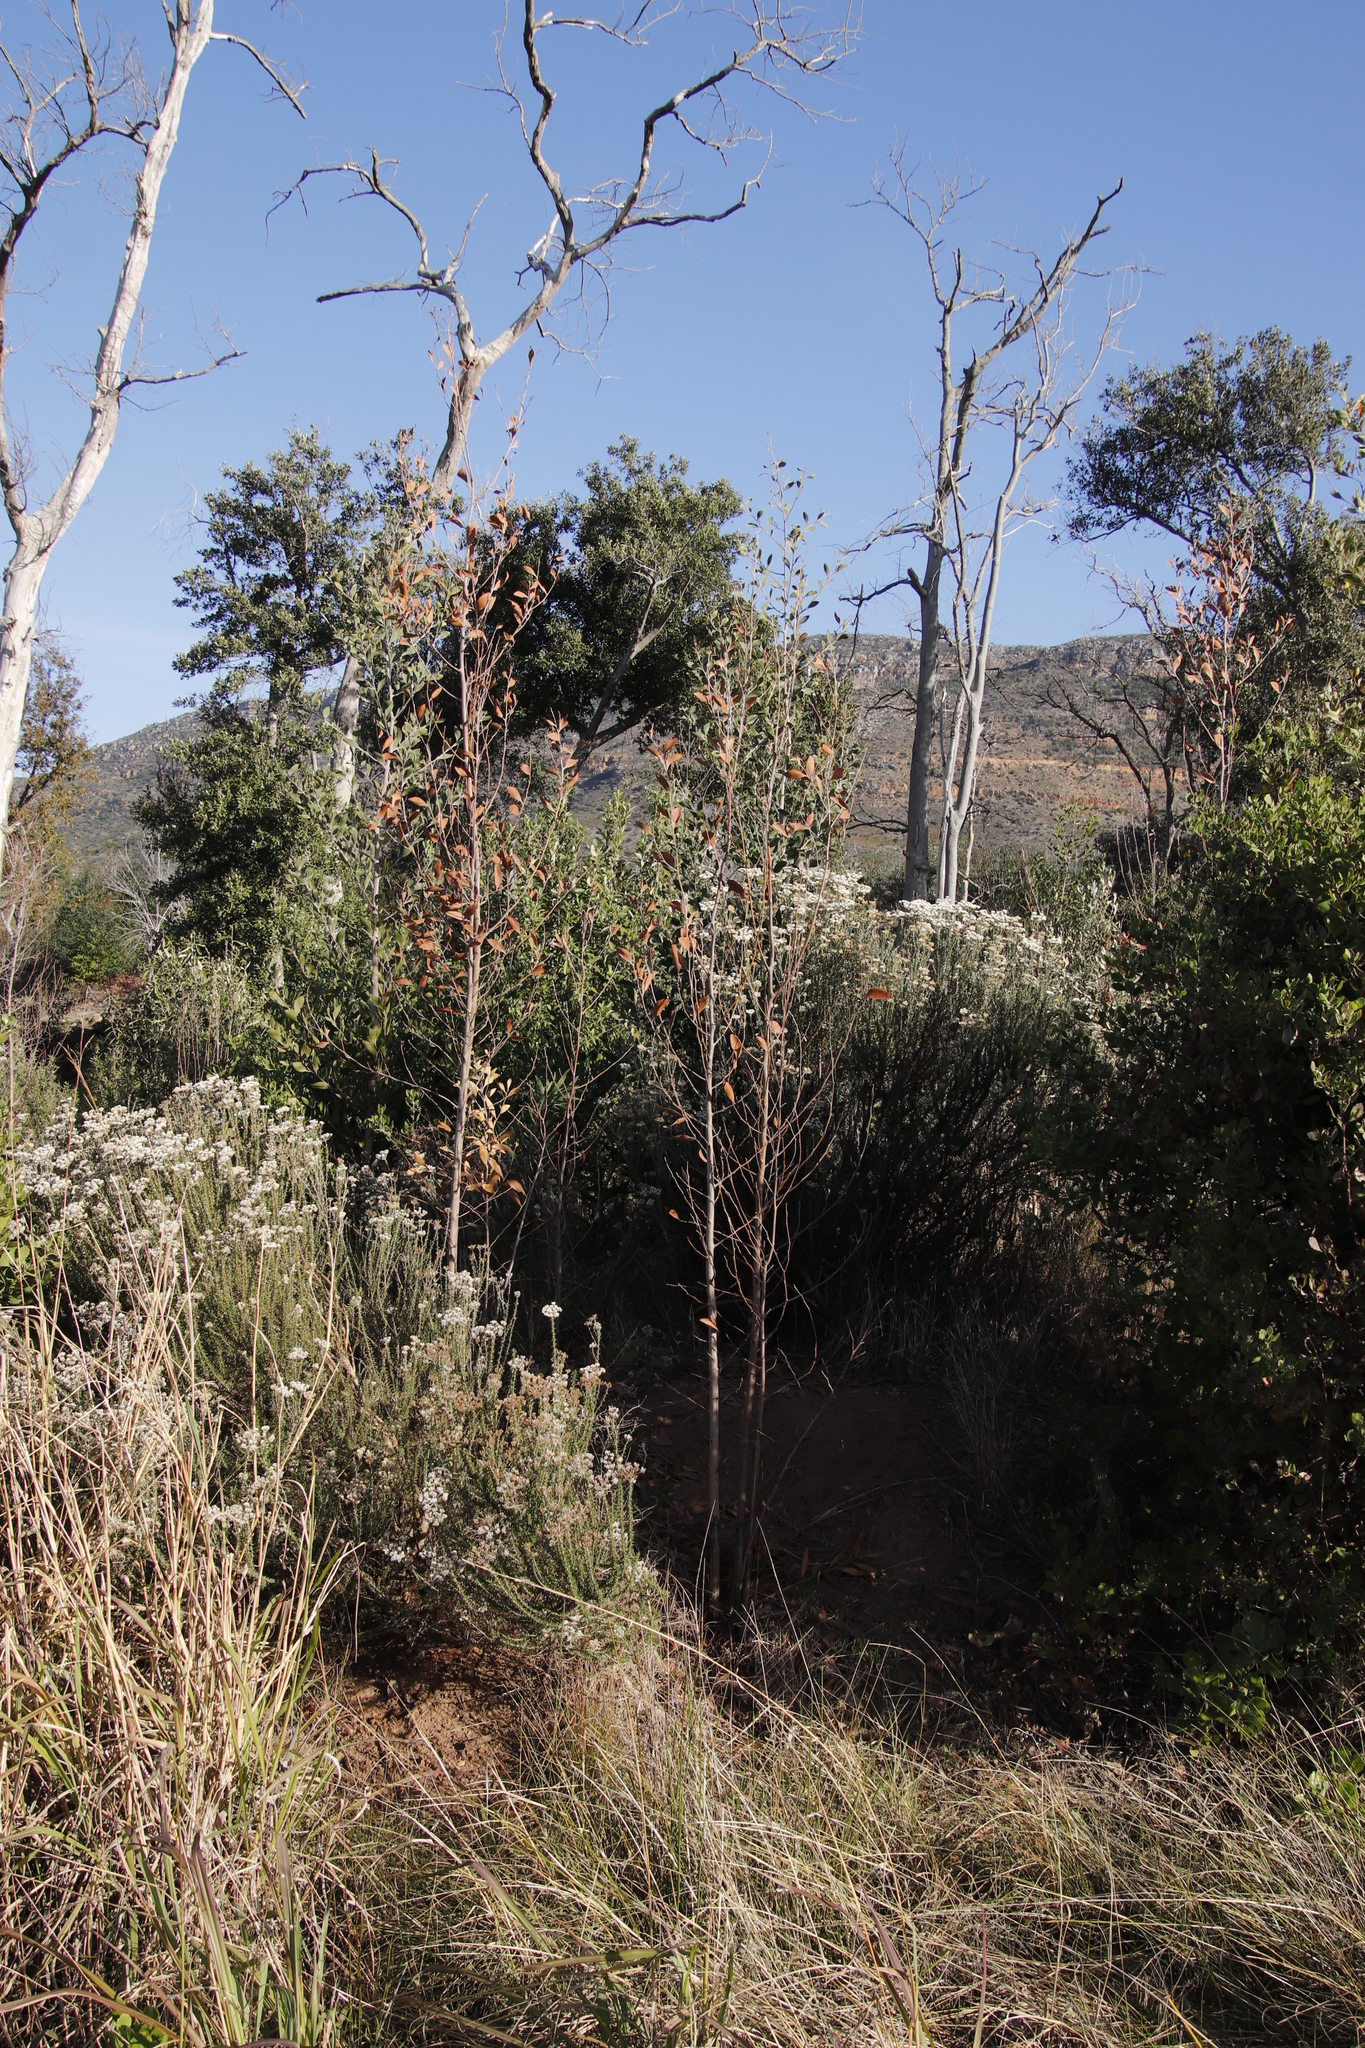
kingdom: Plantae
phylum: Tracheophyta
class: Magnoliopsida
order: Fabales
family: Fabaceae
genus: Acacia
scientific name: Acacia melanoxylon
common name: Blackwood
